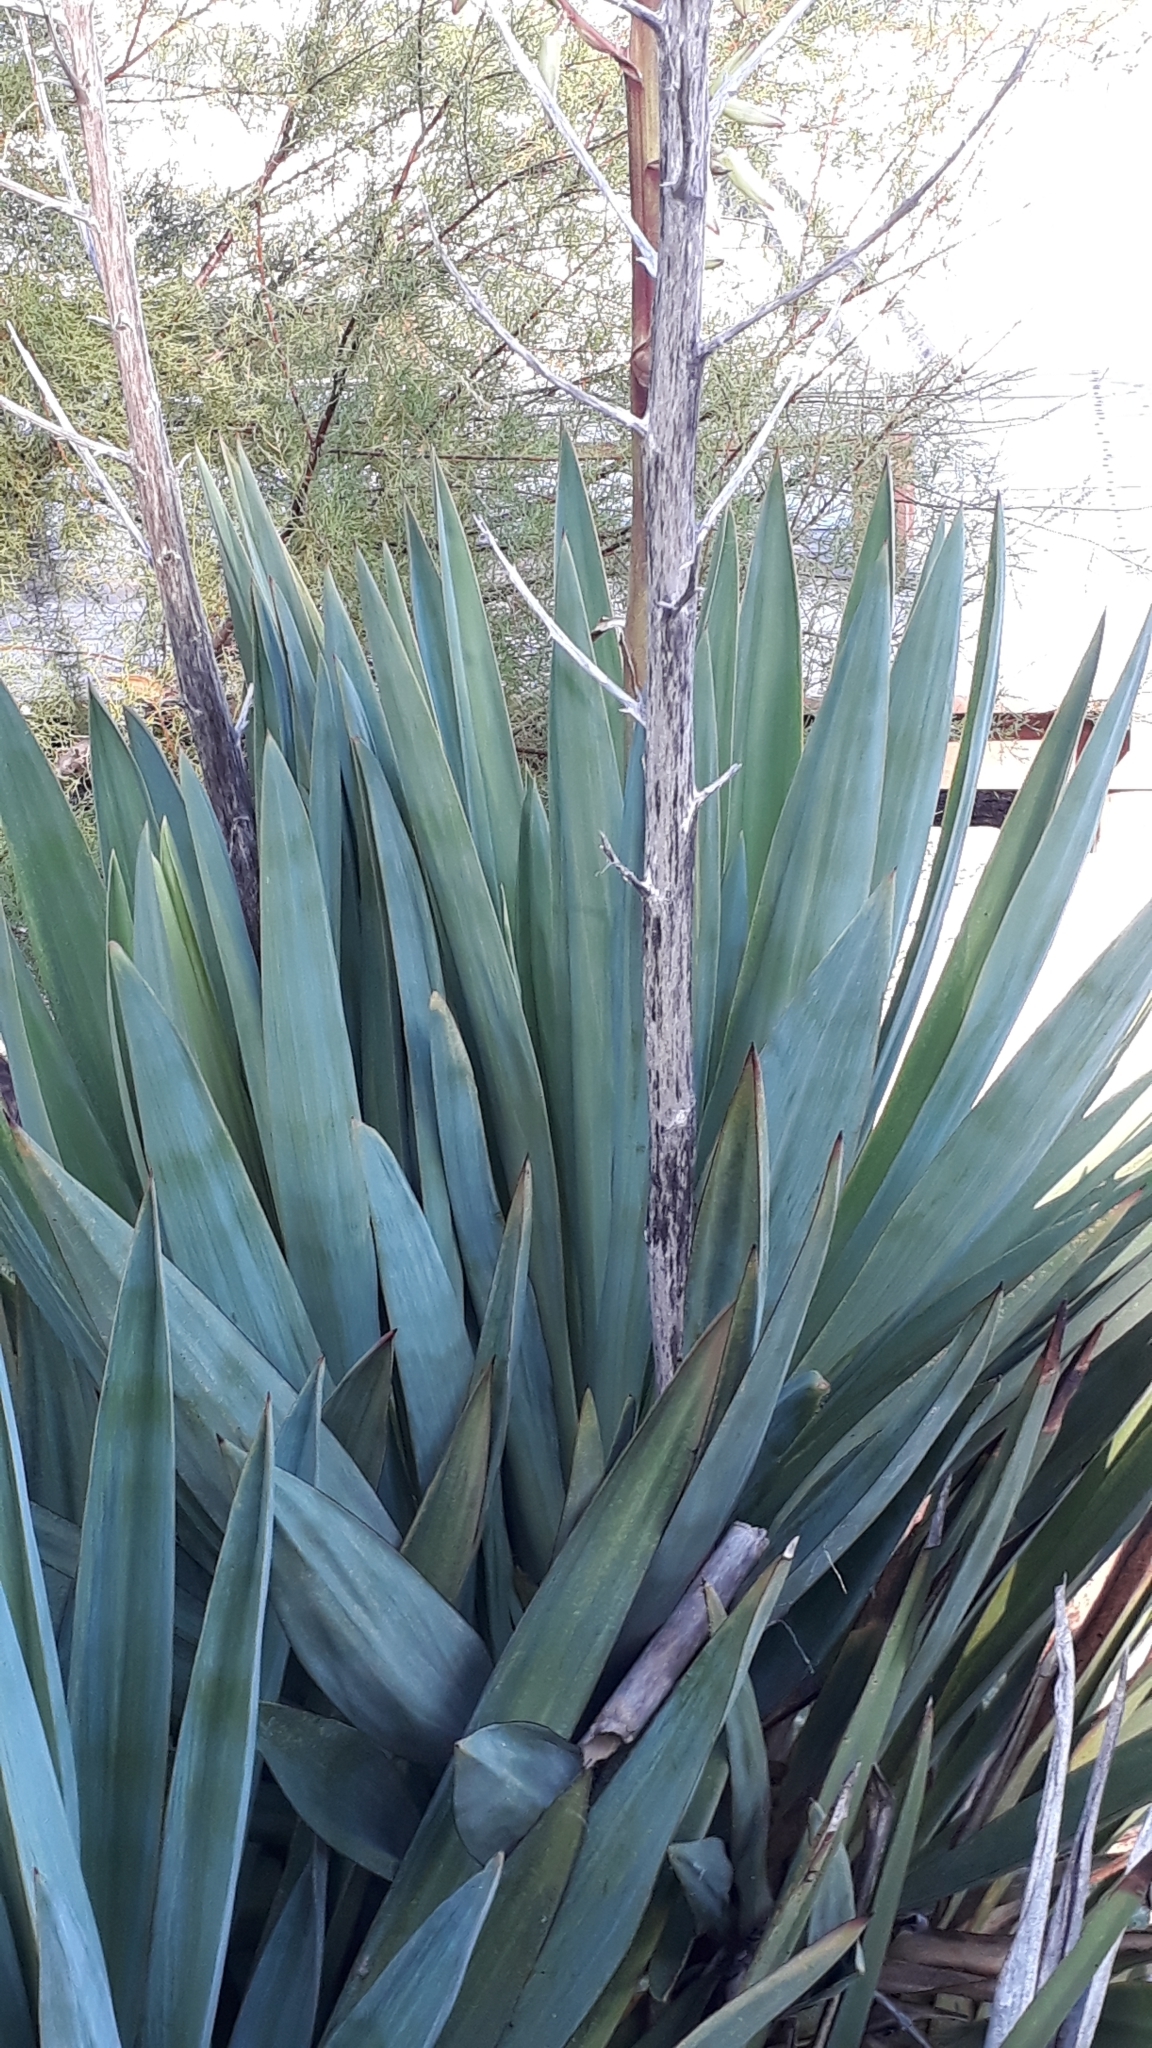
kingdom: Plantae
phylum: Tracheophyta
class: Liliopsida
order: Asparagales
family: Asparagaceae
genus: Yucca
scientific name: Yucca gloriosa
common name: Spanish-dagger
